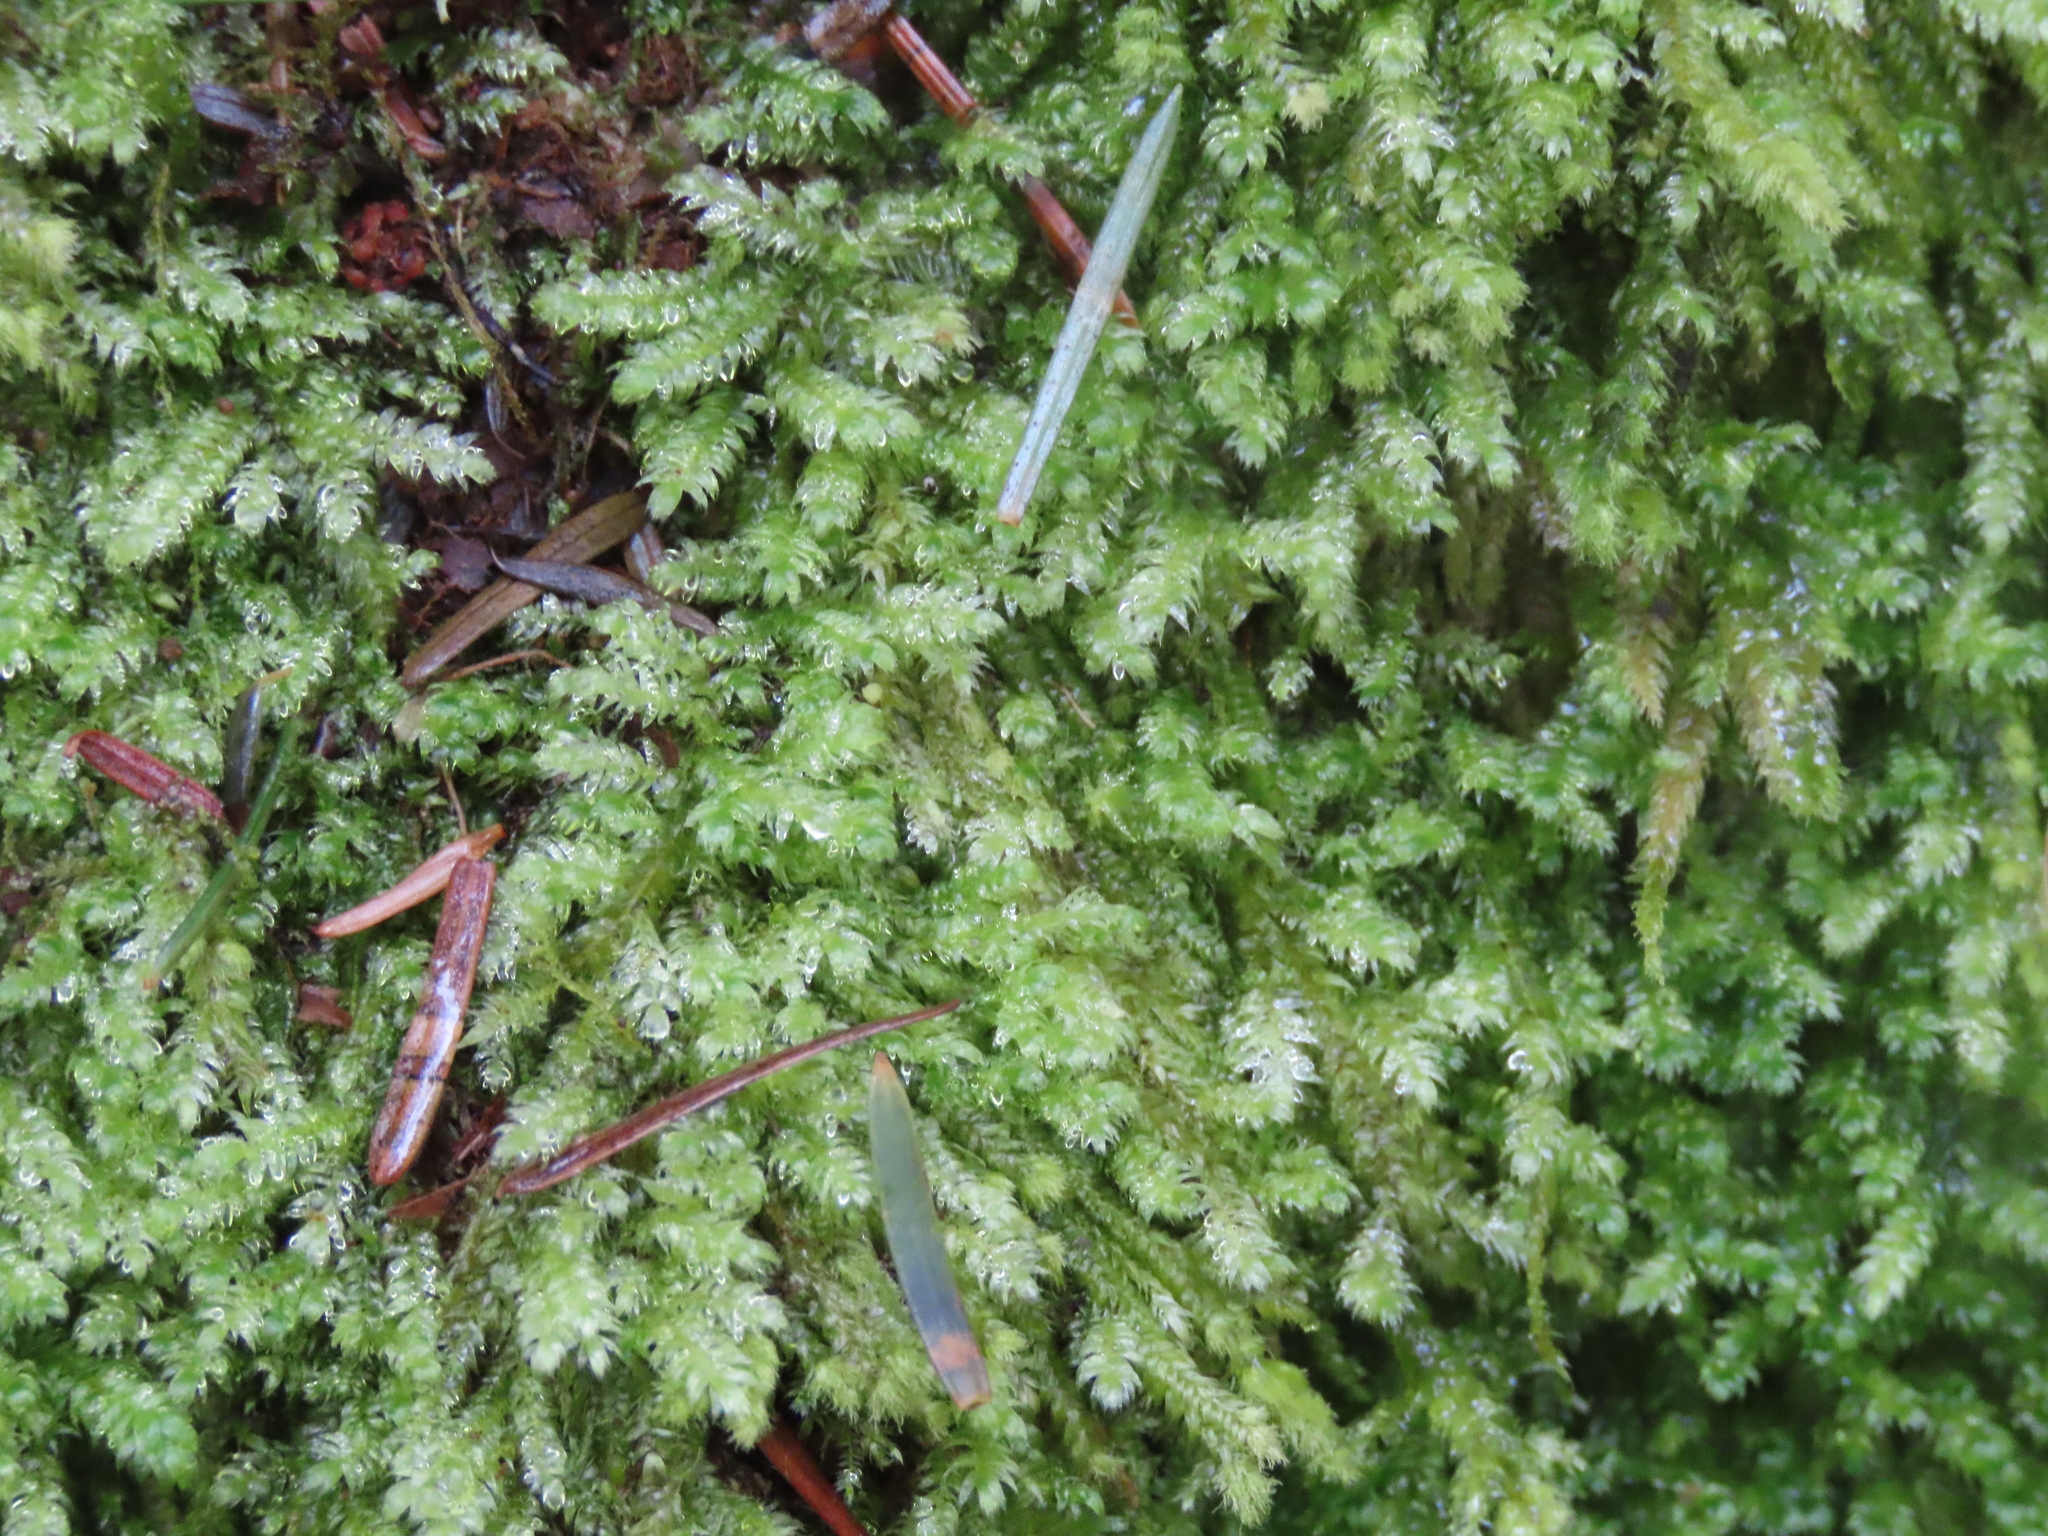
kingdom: Plantae
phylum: Bryophyta
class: Bryopsida
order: Hypnales
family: Plagiotheciaceae
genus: Pseudotaxiphyllum
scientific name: Pseudotaxiphyllum elegans
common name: Elegant silk moss
